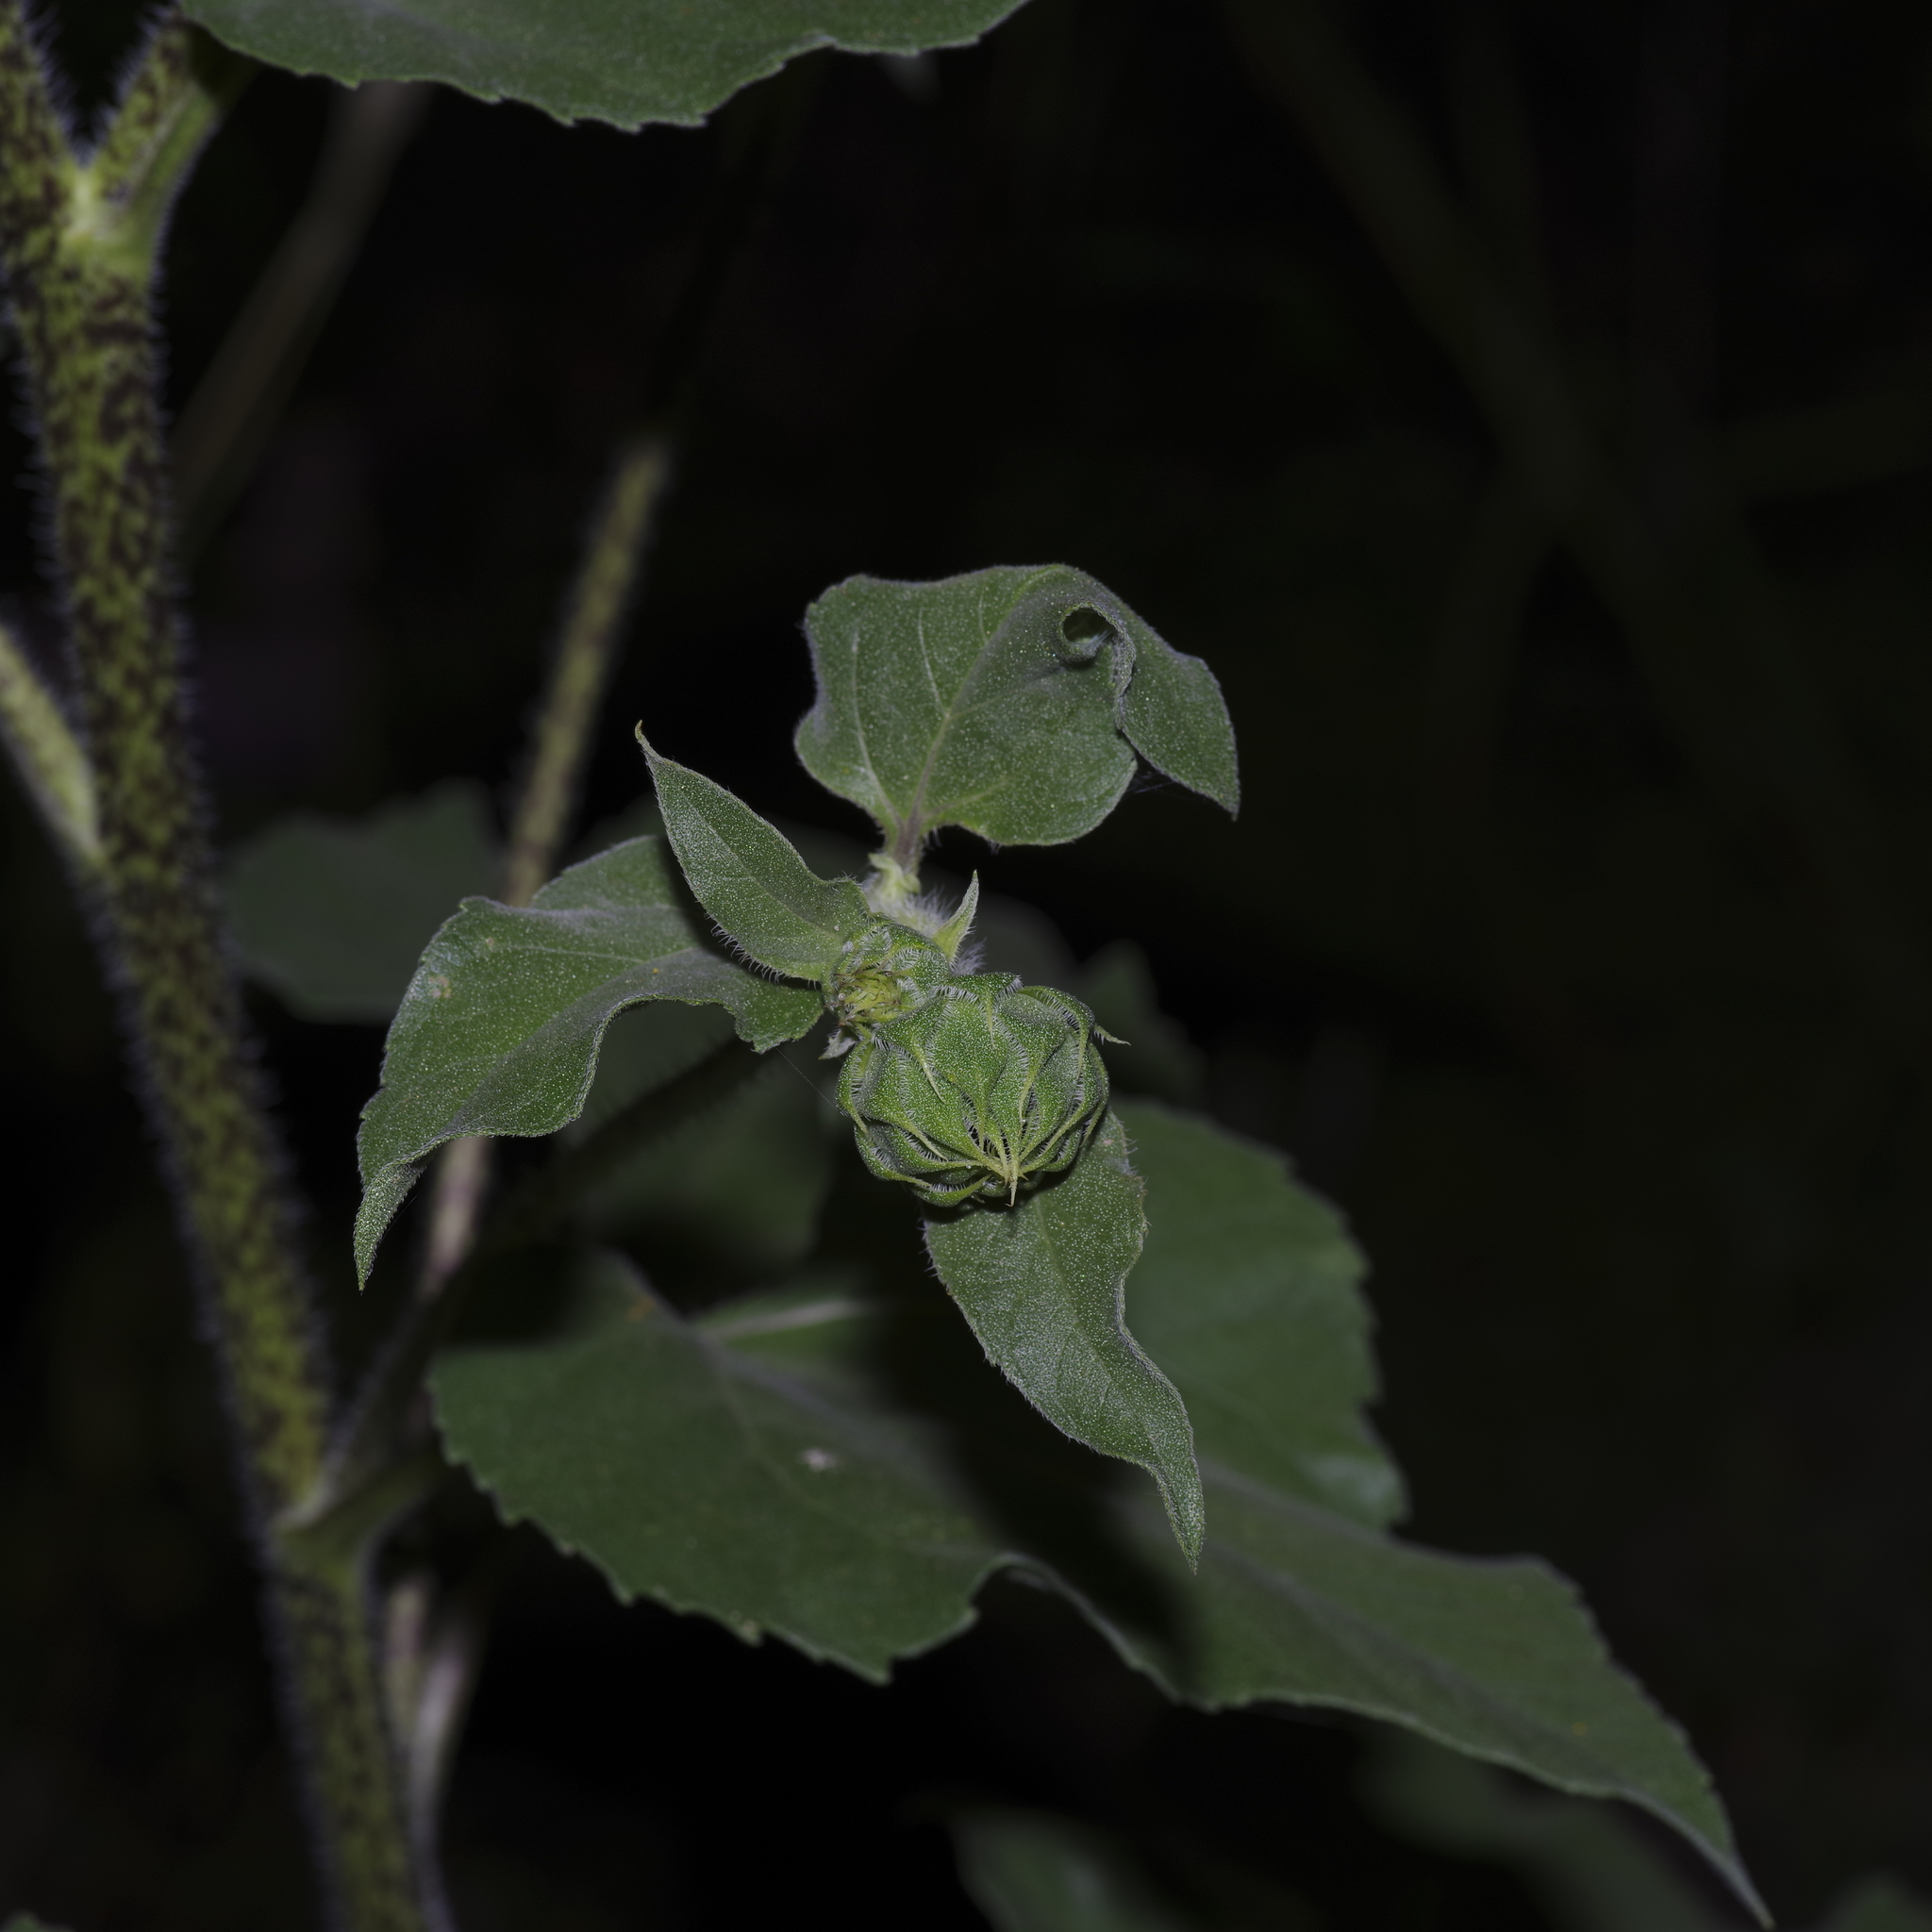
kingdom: Plantae
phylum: Tracheophyta
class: Magnoliopsida
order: Asterales
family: Asteraceae
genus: Helianthus
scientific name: Helianthus annuus
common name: Sunflower
